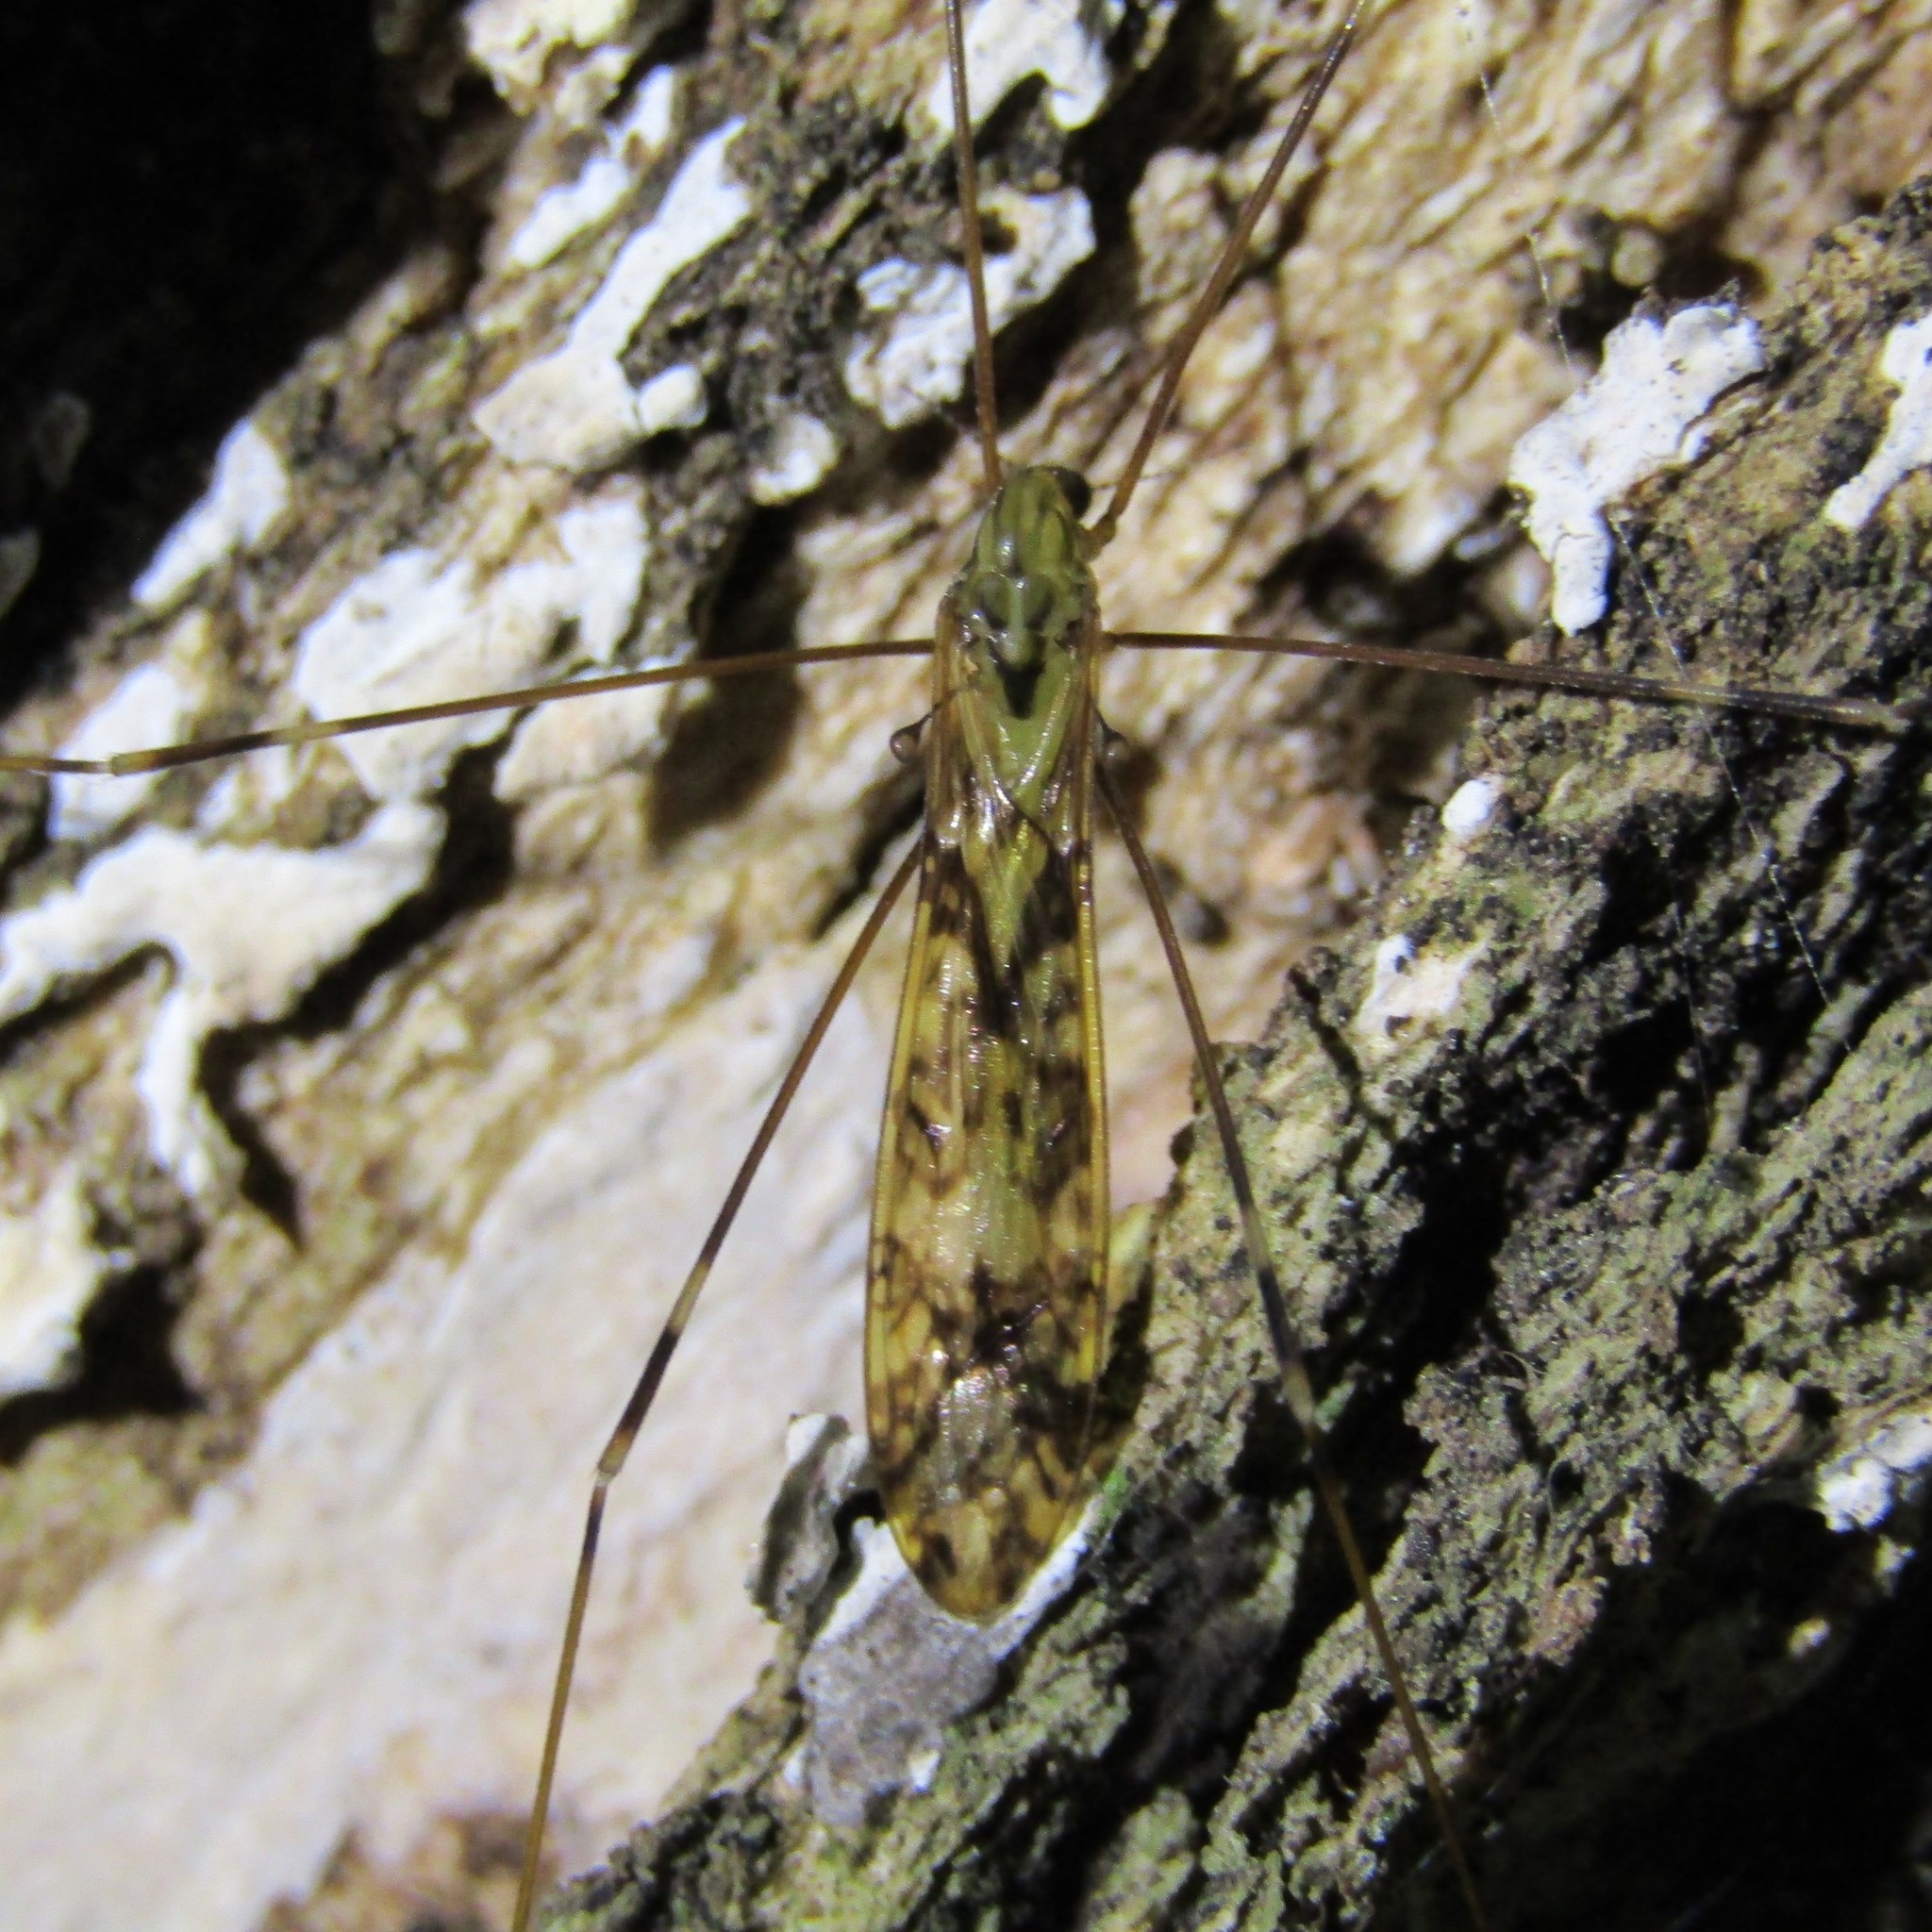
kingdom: Animalia
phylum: Arthropoda
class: Insecta
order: Diptera
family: Limoniidae
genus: Discobola
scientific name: Discobola tessellata
